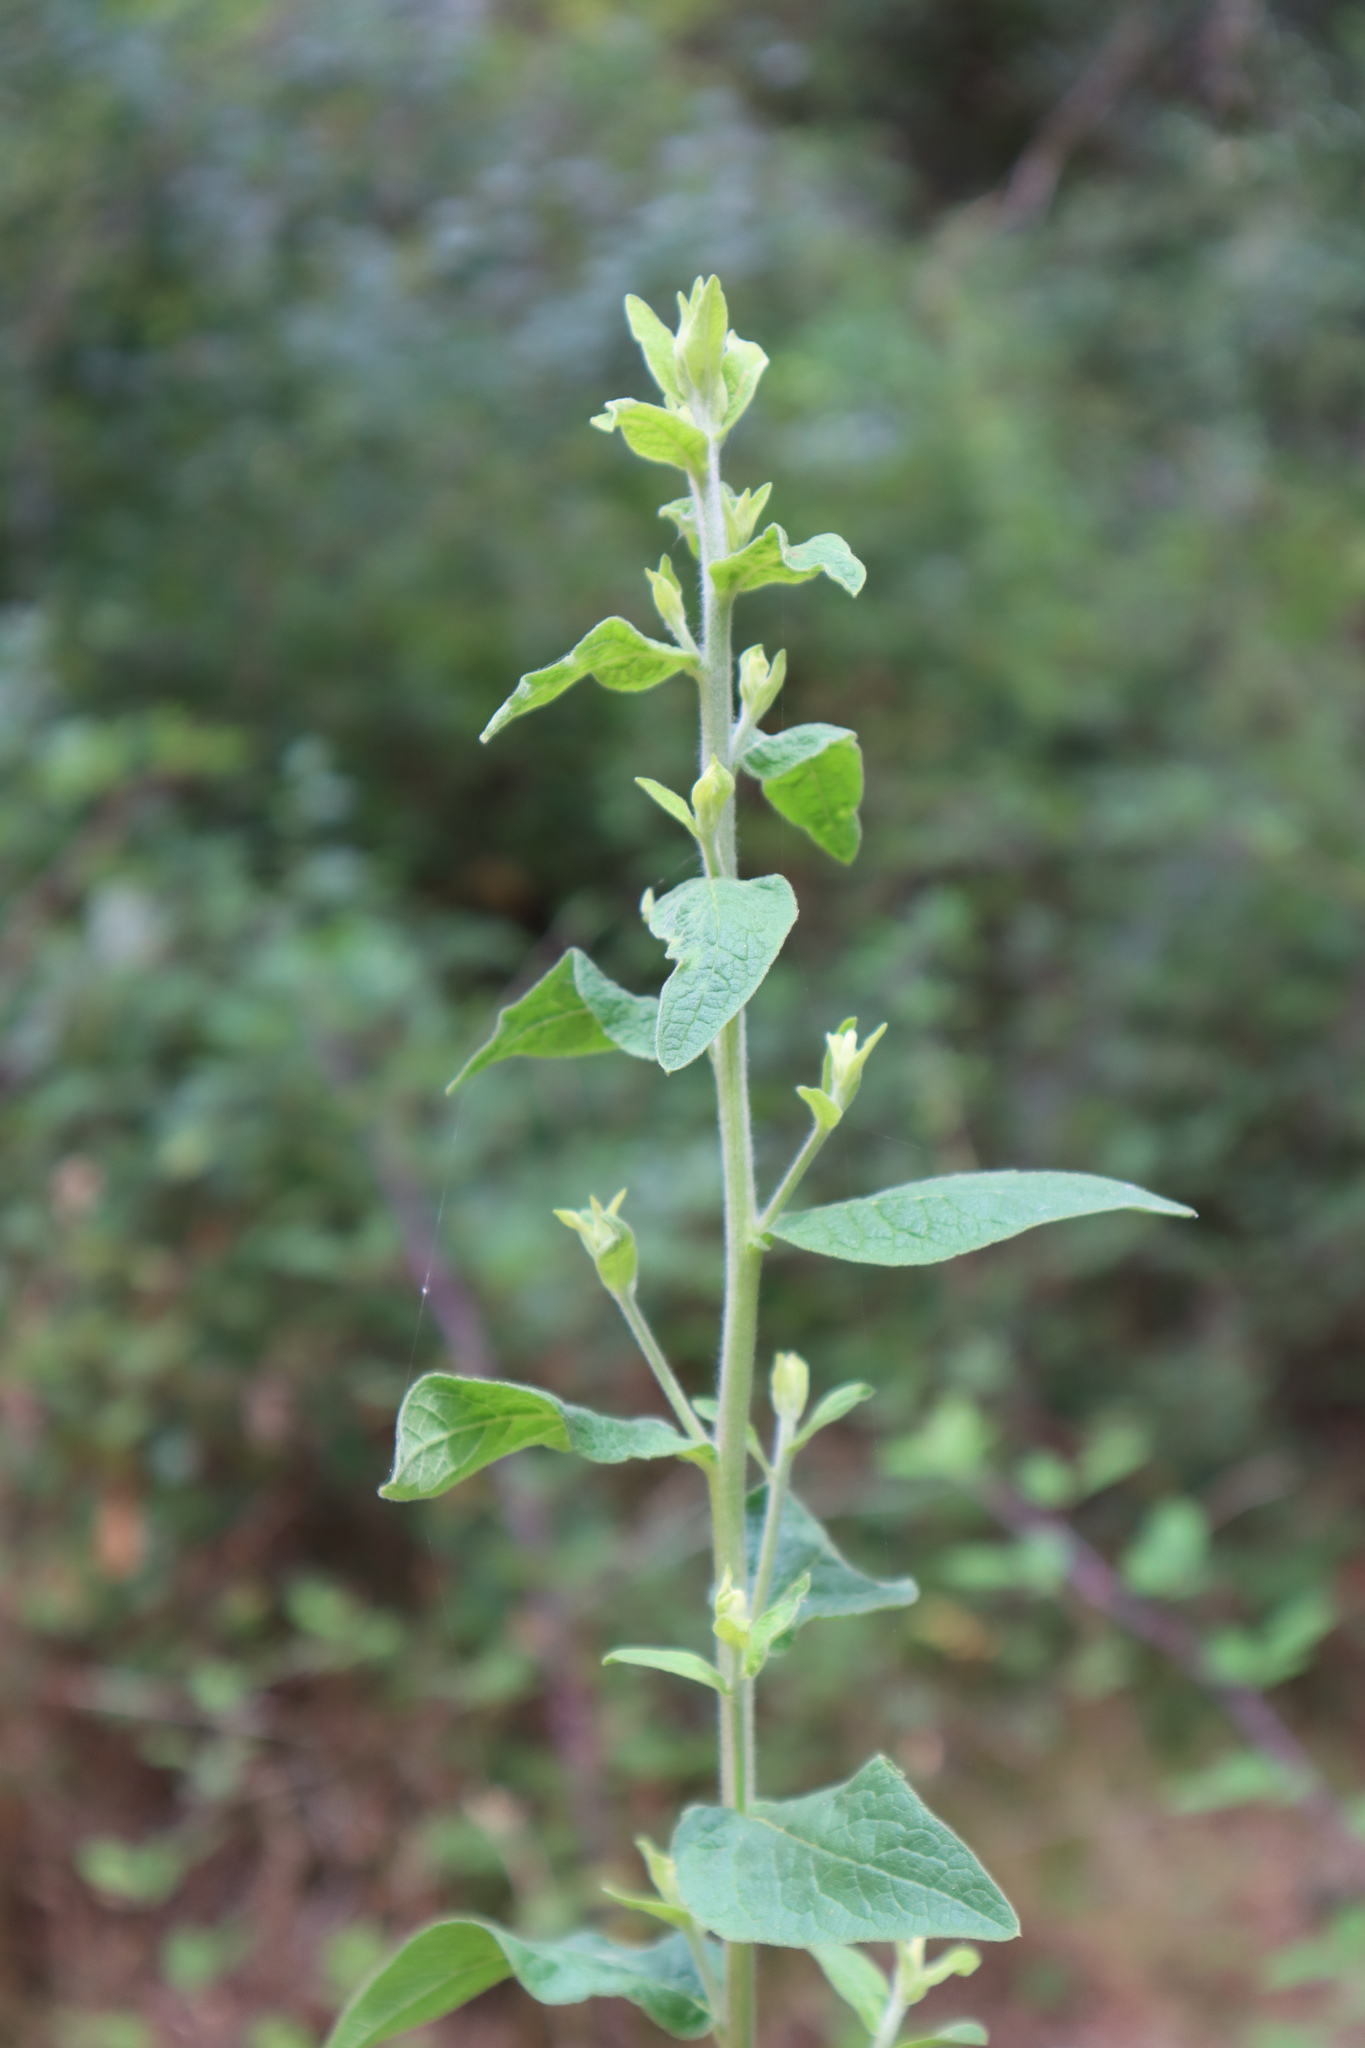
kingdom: Plantae
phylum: Tracheophyta
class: Magnoliopsida
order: Asterales
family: Asteraceae
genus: Pentanema
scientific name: Pentanema squarrosum
